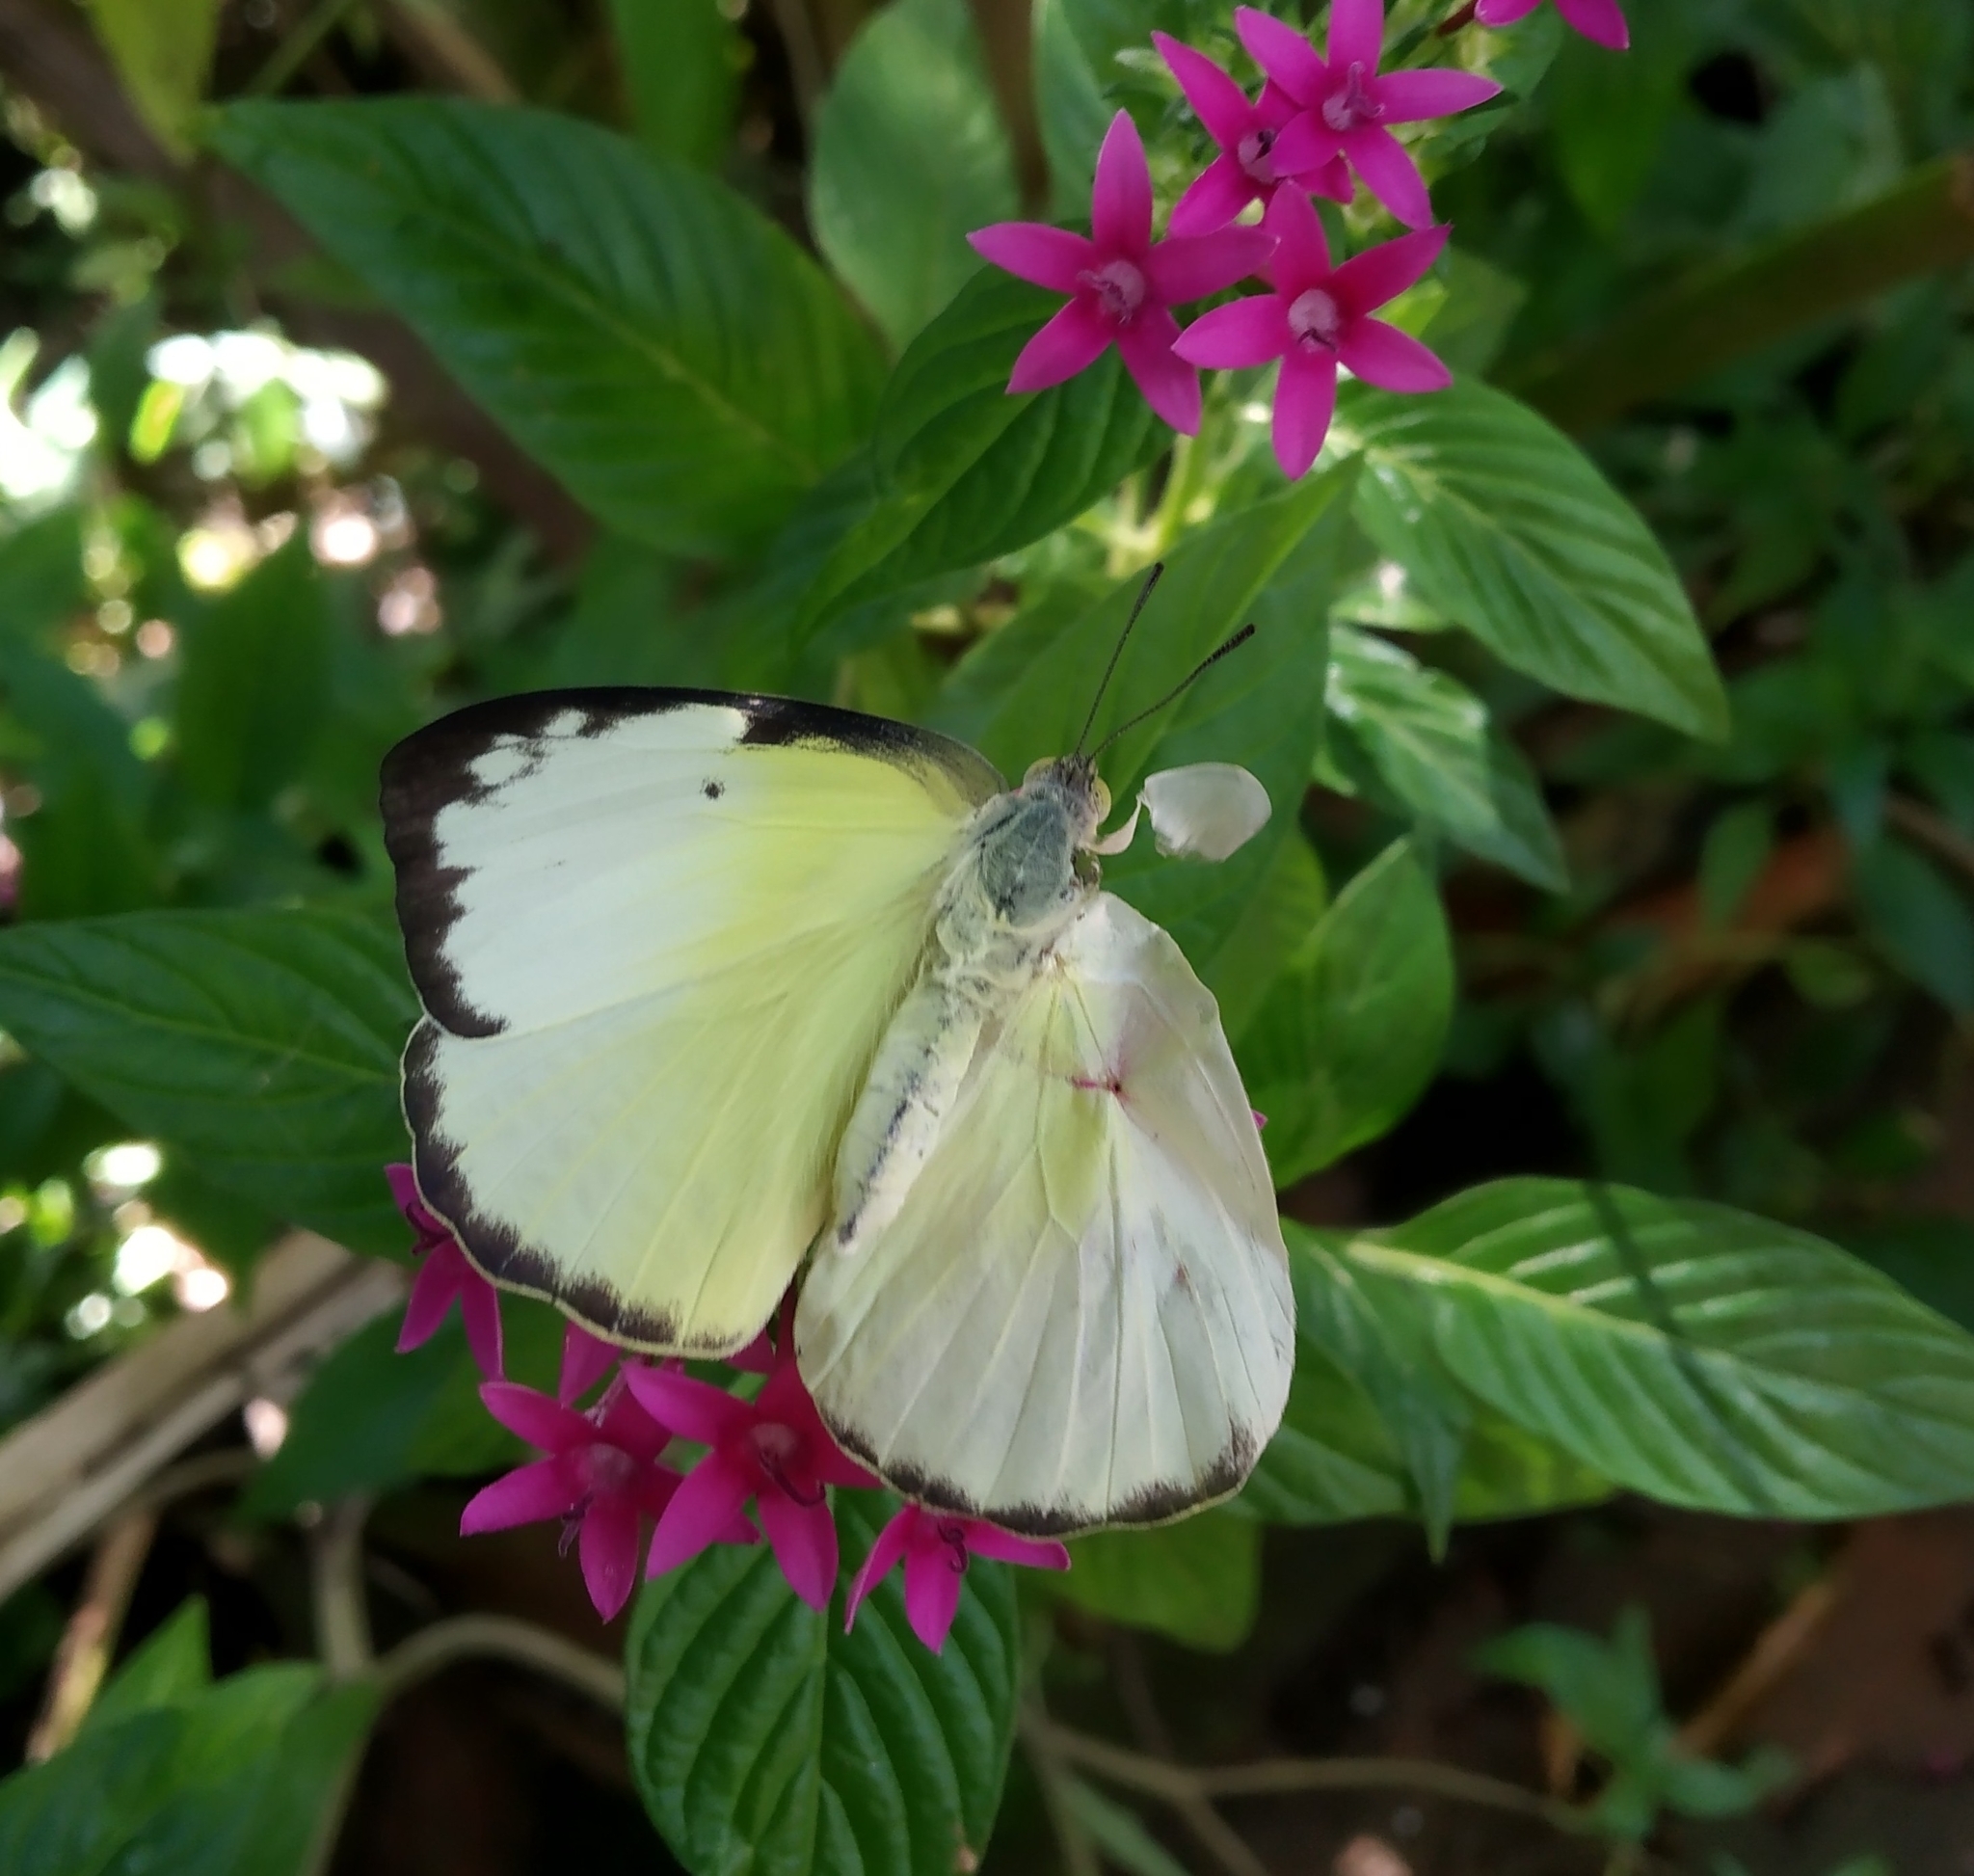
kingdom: Animalia
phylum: Arthropoda
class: Insecta
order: Lepidoptera
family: Pieridae
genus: Catopsilia
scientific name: Catopsilia pomona
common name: Common emigrant
